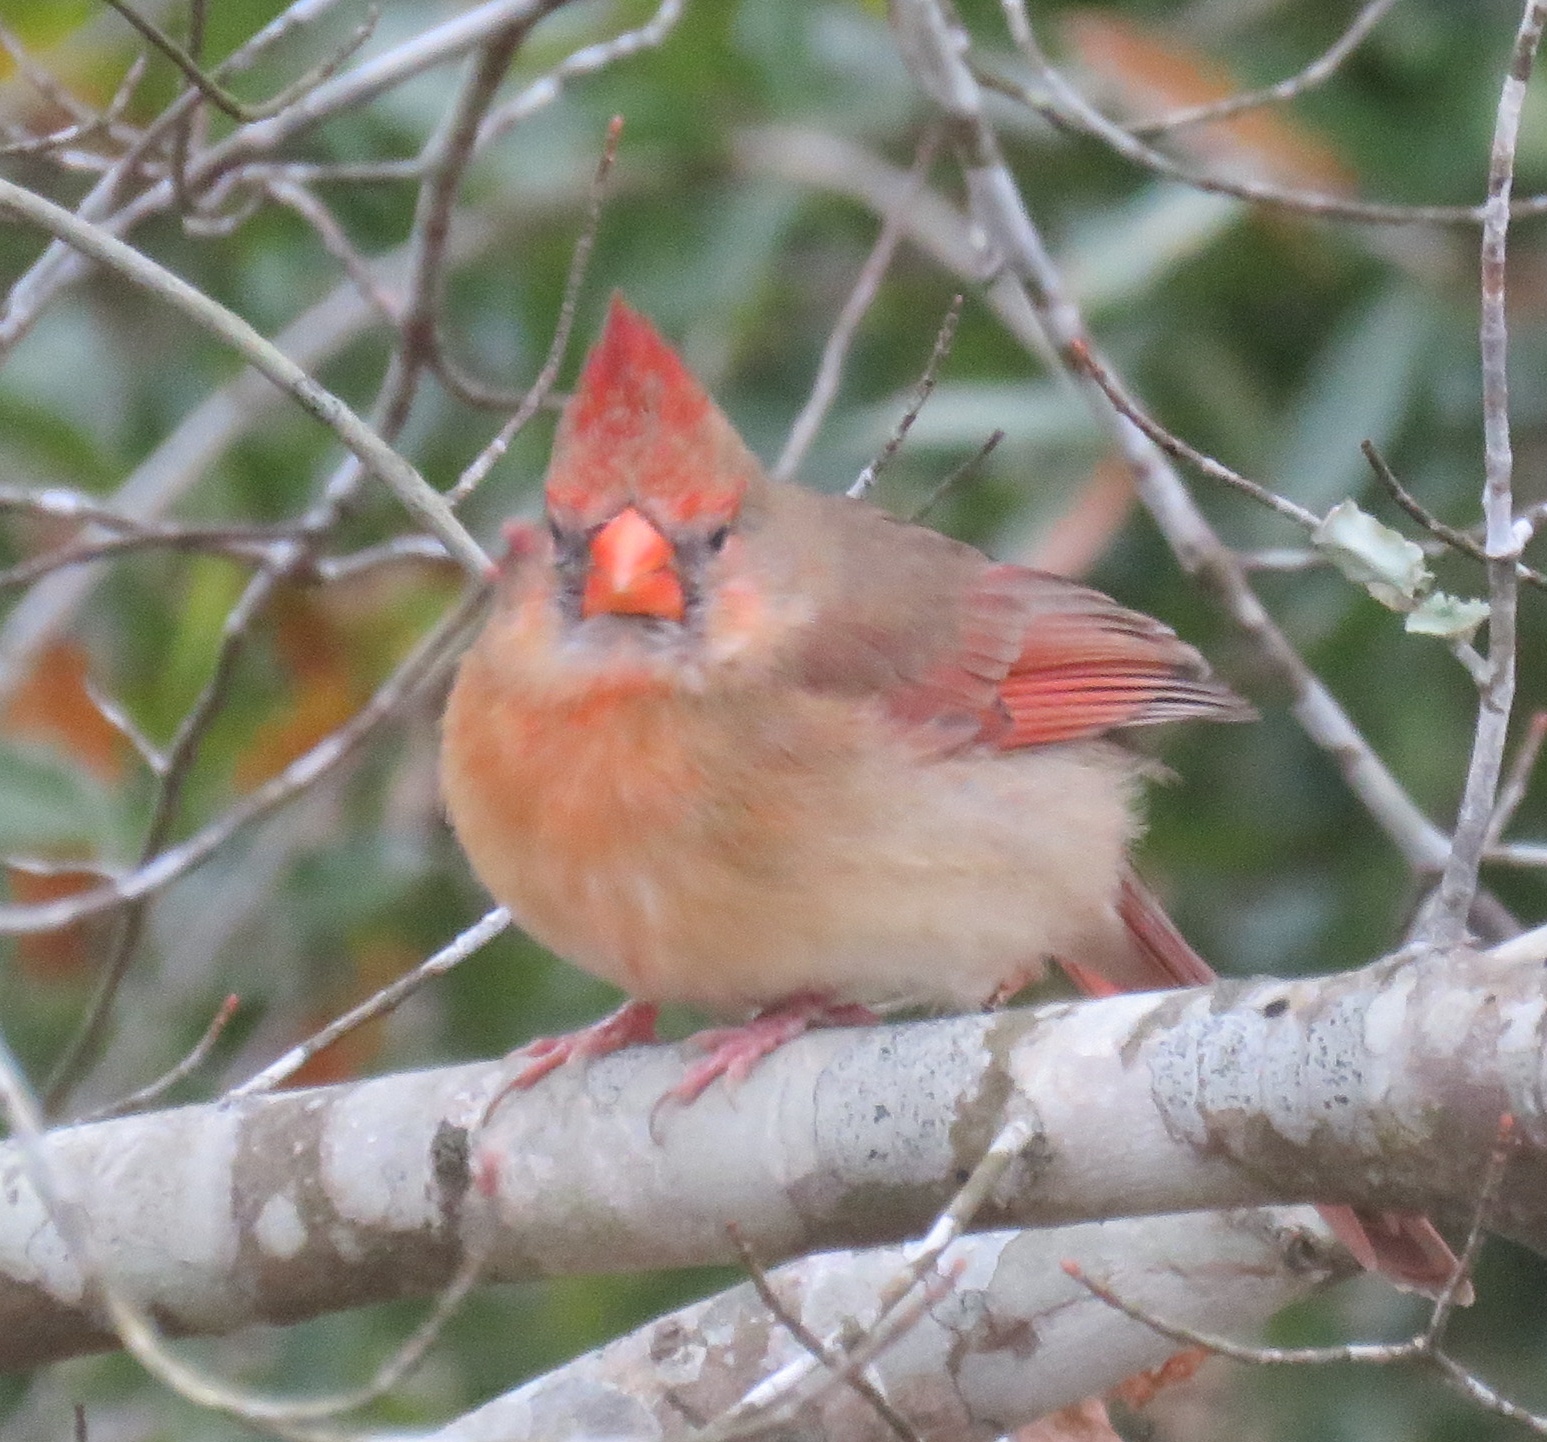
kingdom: Animalia
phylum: Chordata
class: Aves
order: Passeriformes
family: Cardinalidae
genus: Cardinalis
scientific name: Cardinalis cardinalis
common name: Northern cardinal
